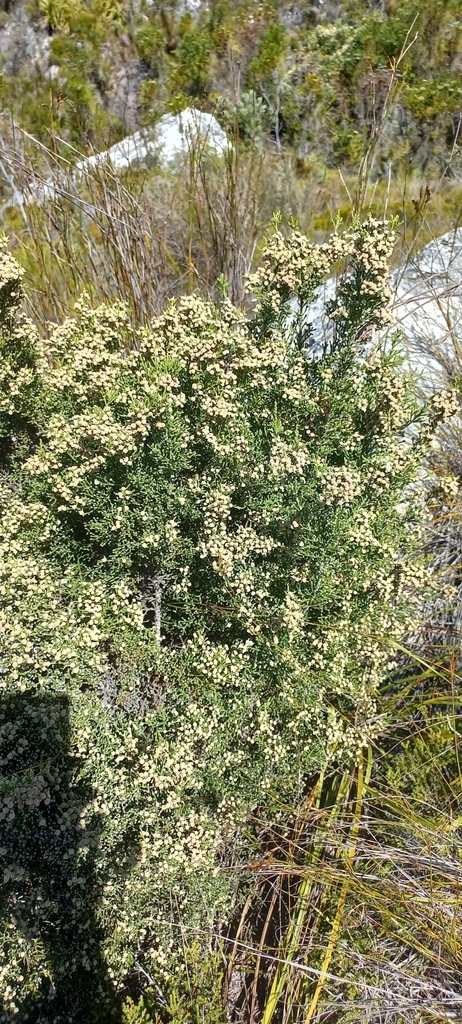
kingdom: Plantae
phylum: Tracheophyta
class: Magnoliopsida
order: Bruniales
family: Bruniaceae
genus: Brunia
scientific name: Brunia microphylla
